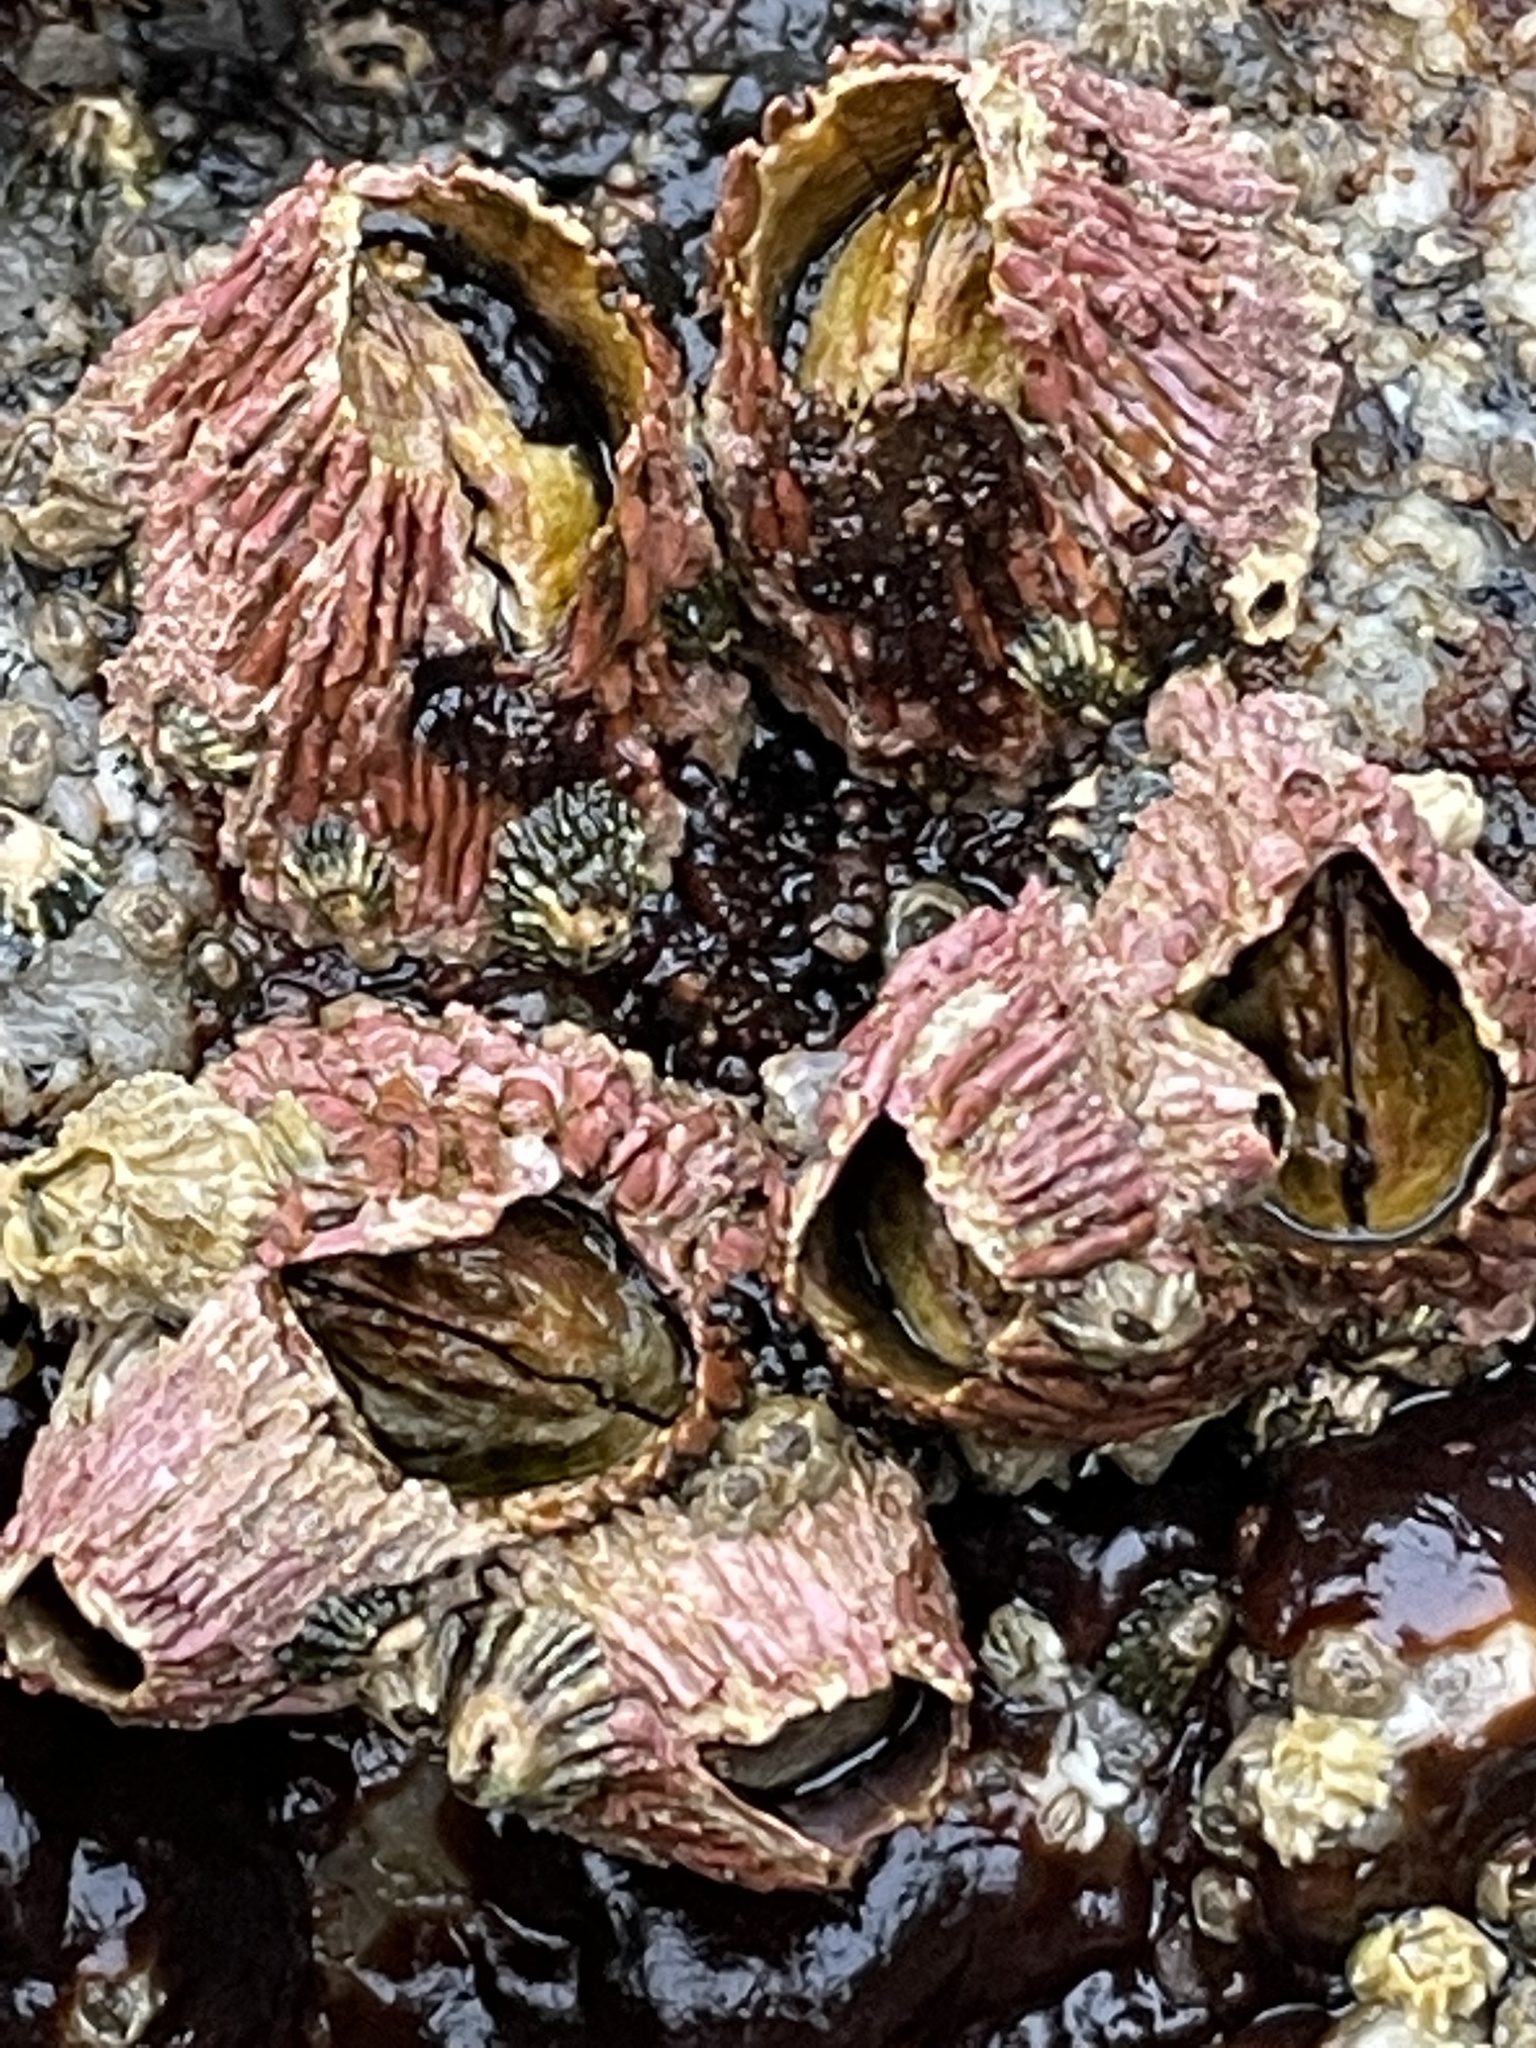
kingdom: Animalia
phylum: Arthropoda
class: Maxillopoda
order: Sessilia
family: Tetraclitidae
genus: Tetraclita
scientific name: Tetraclita rubescens
